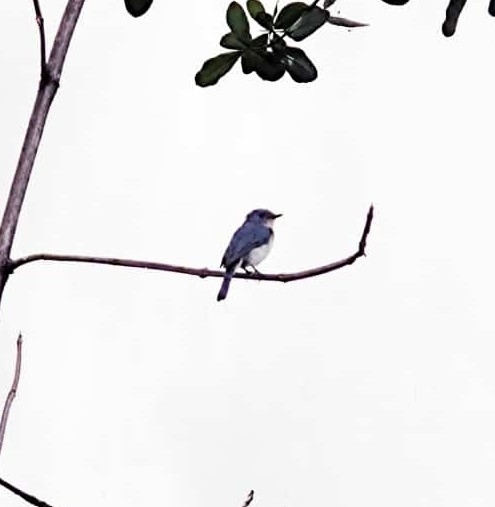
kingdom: Animalia
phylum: Chordata
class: Aves
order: Passeriformes
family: Muscicapidae
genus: Cyornis
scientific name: Cyornis tickelliae
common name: Tickell's blue flycatcher
